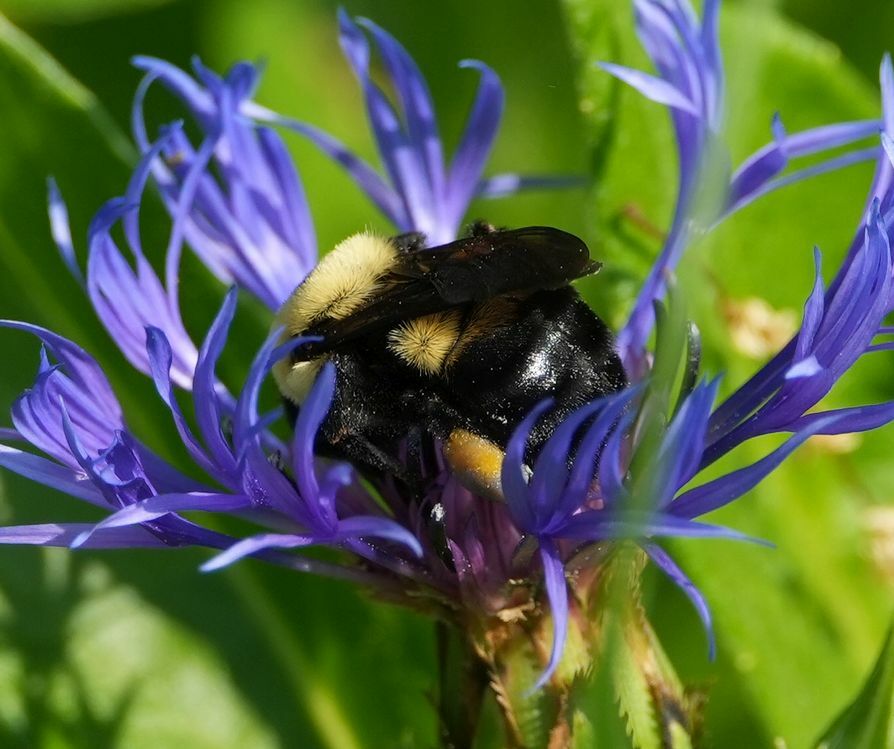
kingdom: Animalia
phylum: Arthropoda
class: Insecta
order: Hymenoptera
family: Apidae
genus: Bombus
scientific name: Bombus griseocollis
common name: Brown-belted bumble bee
